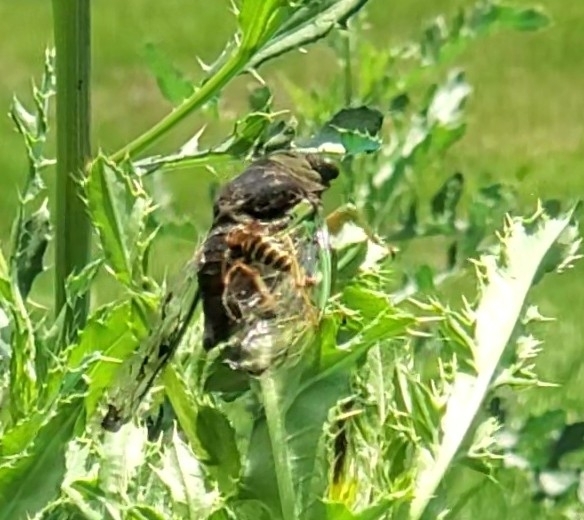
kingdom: Animalia
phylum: Arthropoda
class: Insecta
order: Hemiptera
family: Cicadidae
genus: Neotibicen
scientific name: Neotibicen tibicen
